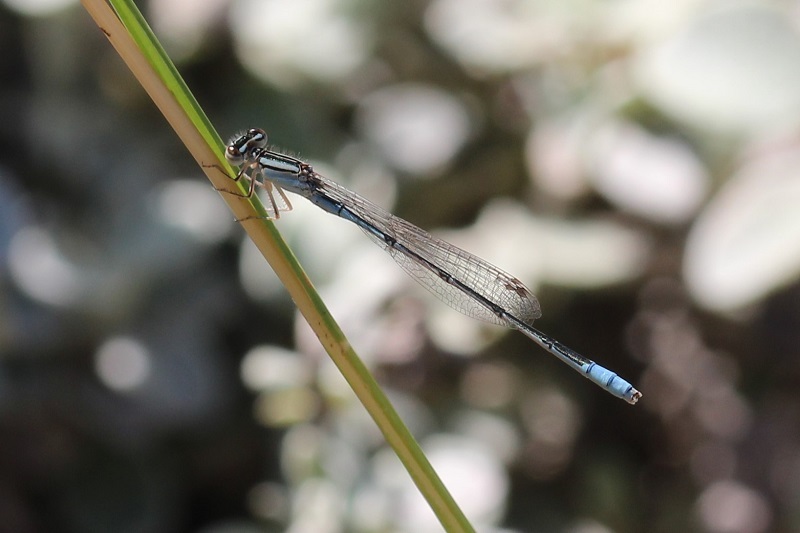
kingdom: Animalia
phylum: Arthropoda
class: Insecta
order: Odonata
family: Coenagrionidae
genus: Africallagma
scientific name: Africallagma glaucum
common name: Swamp bluet
